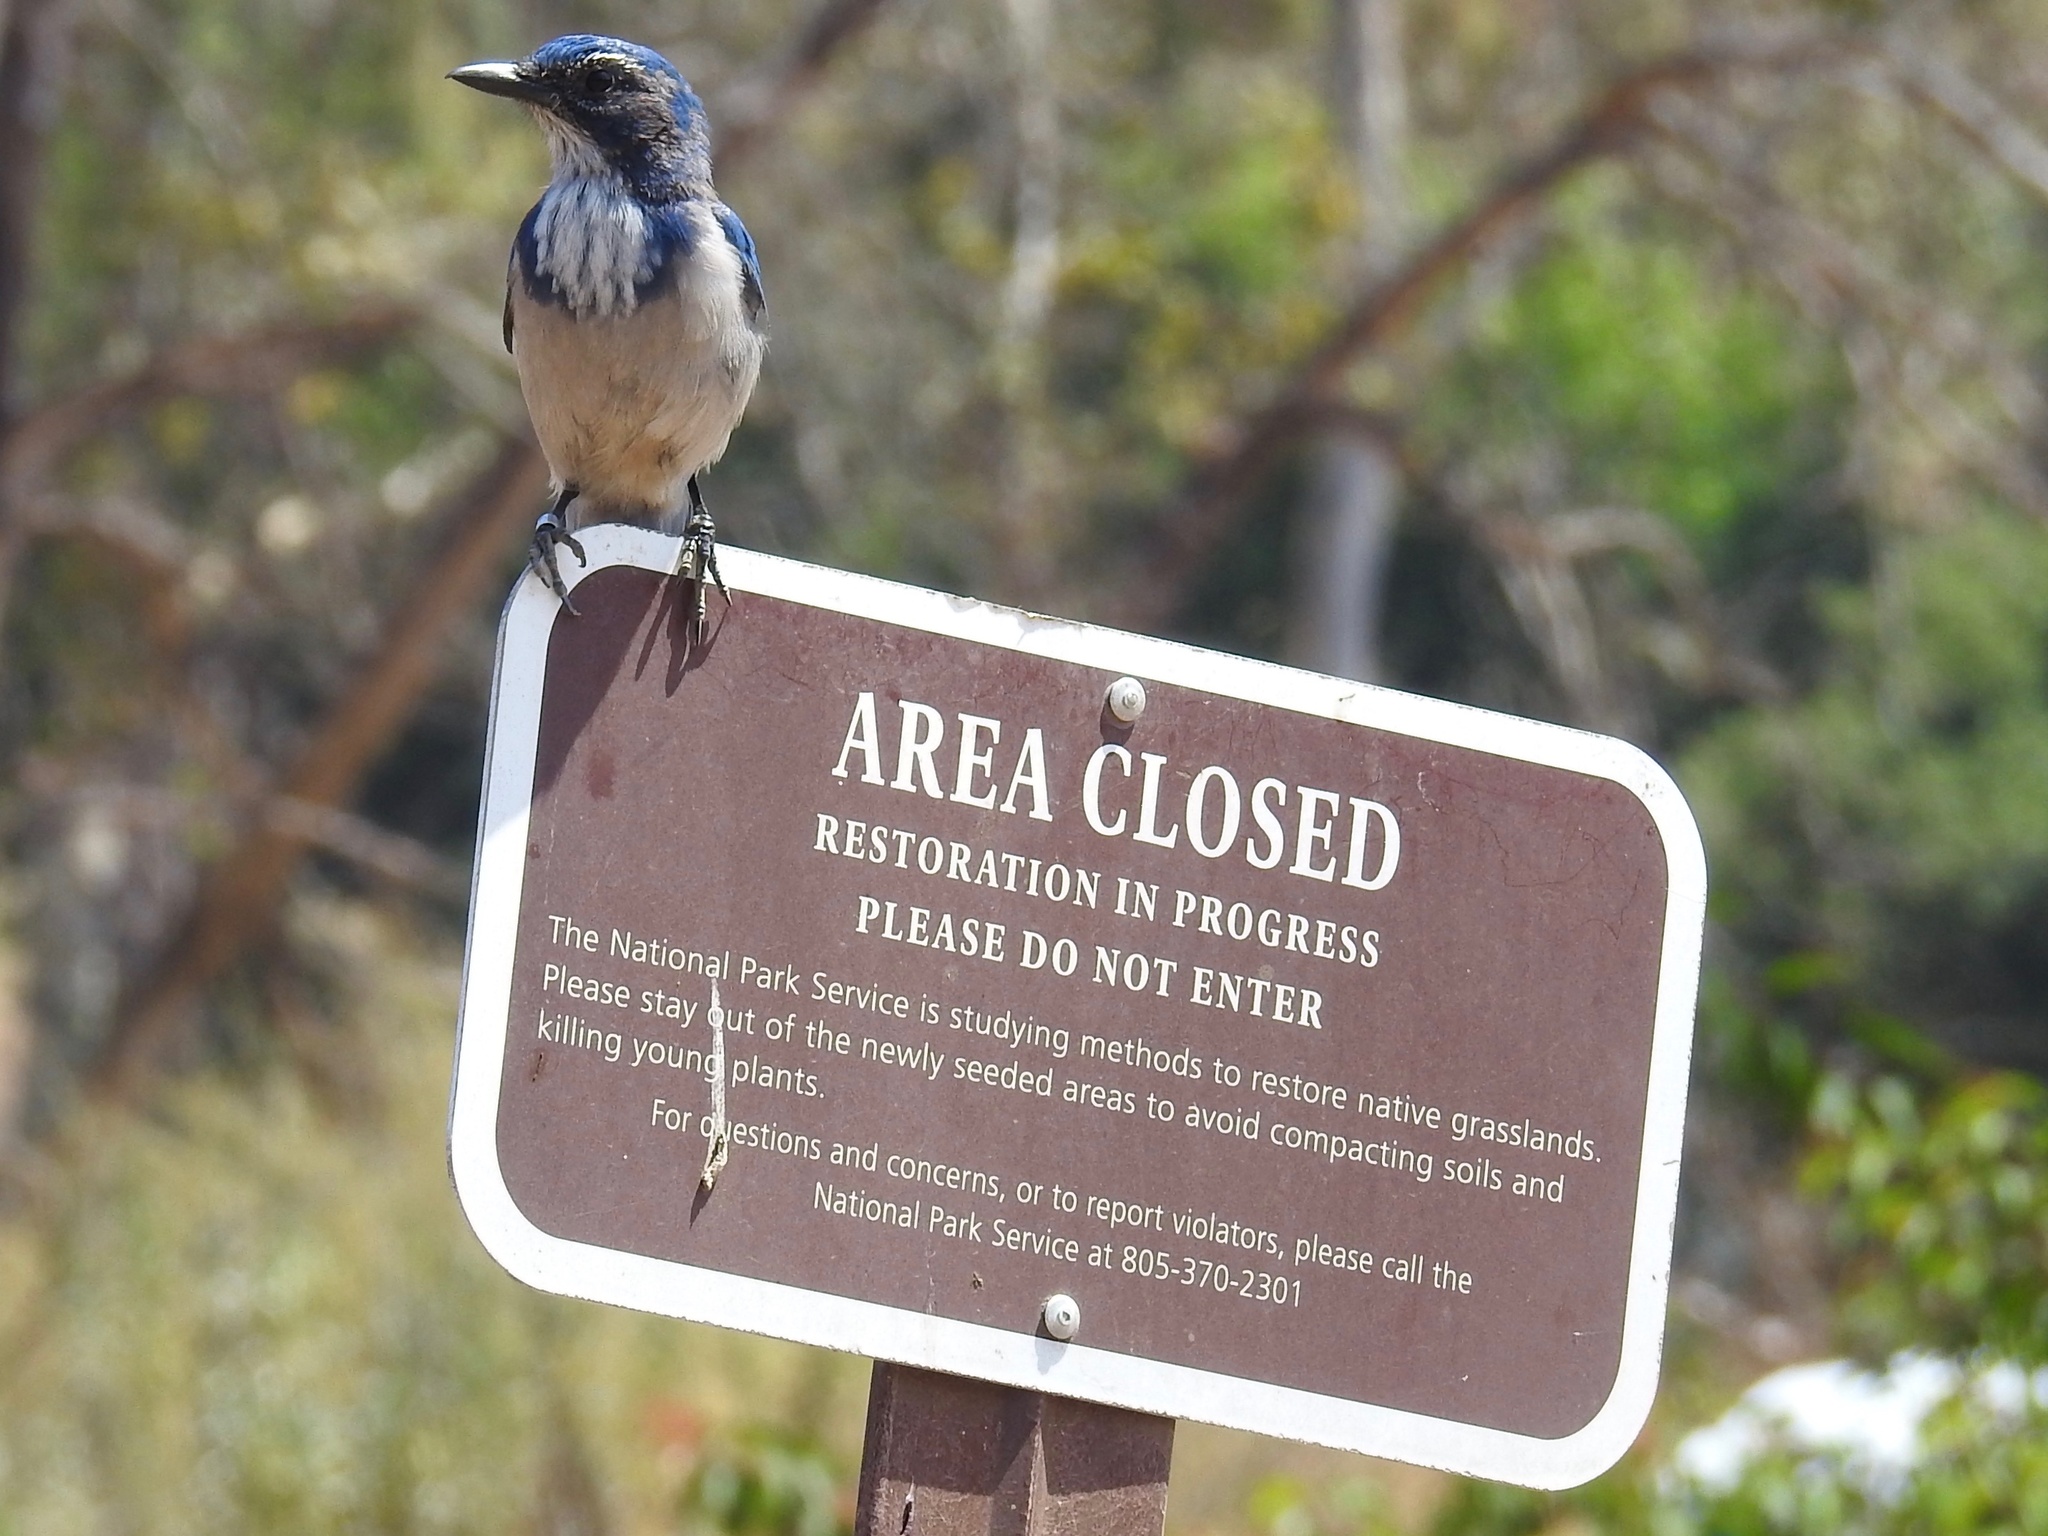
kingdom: Animalia
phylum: Chordata
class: Aves
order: Passeriformes
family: Corvidae
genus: Aphelocoma
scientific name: Aphelocoma californica
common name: California scrub-jay
